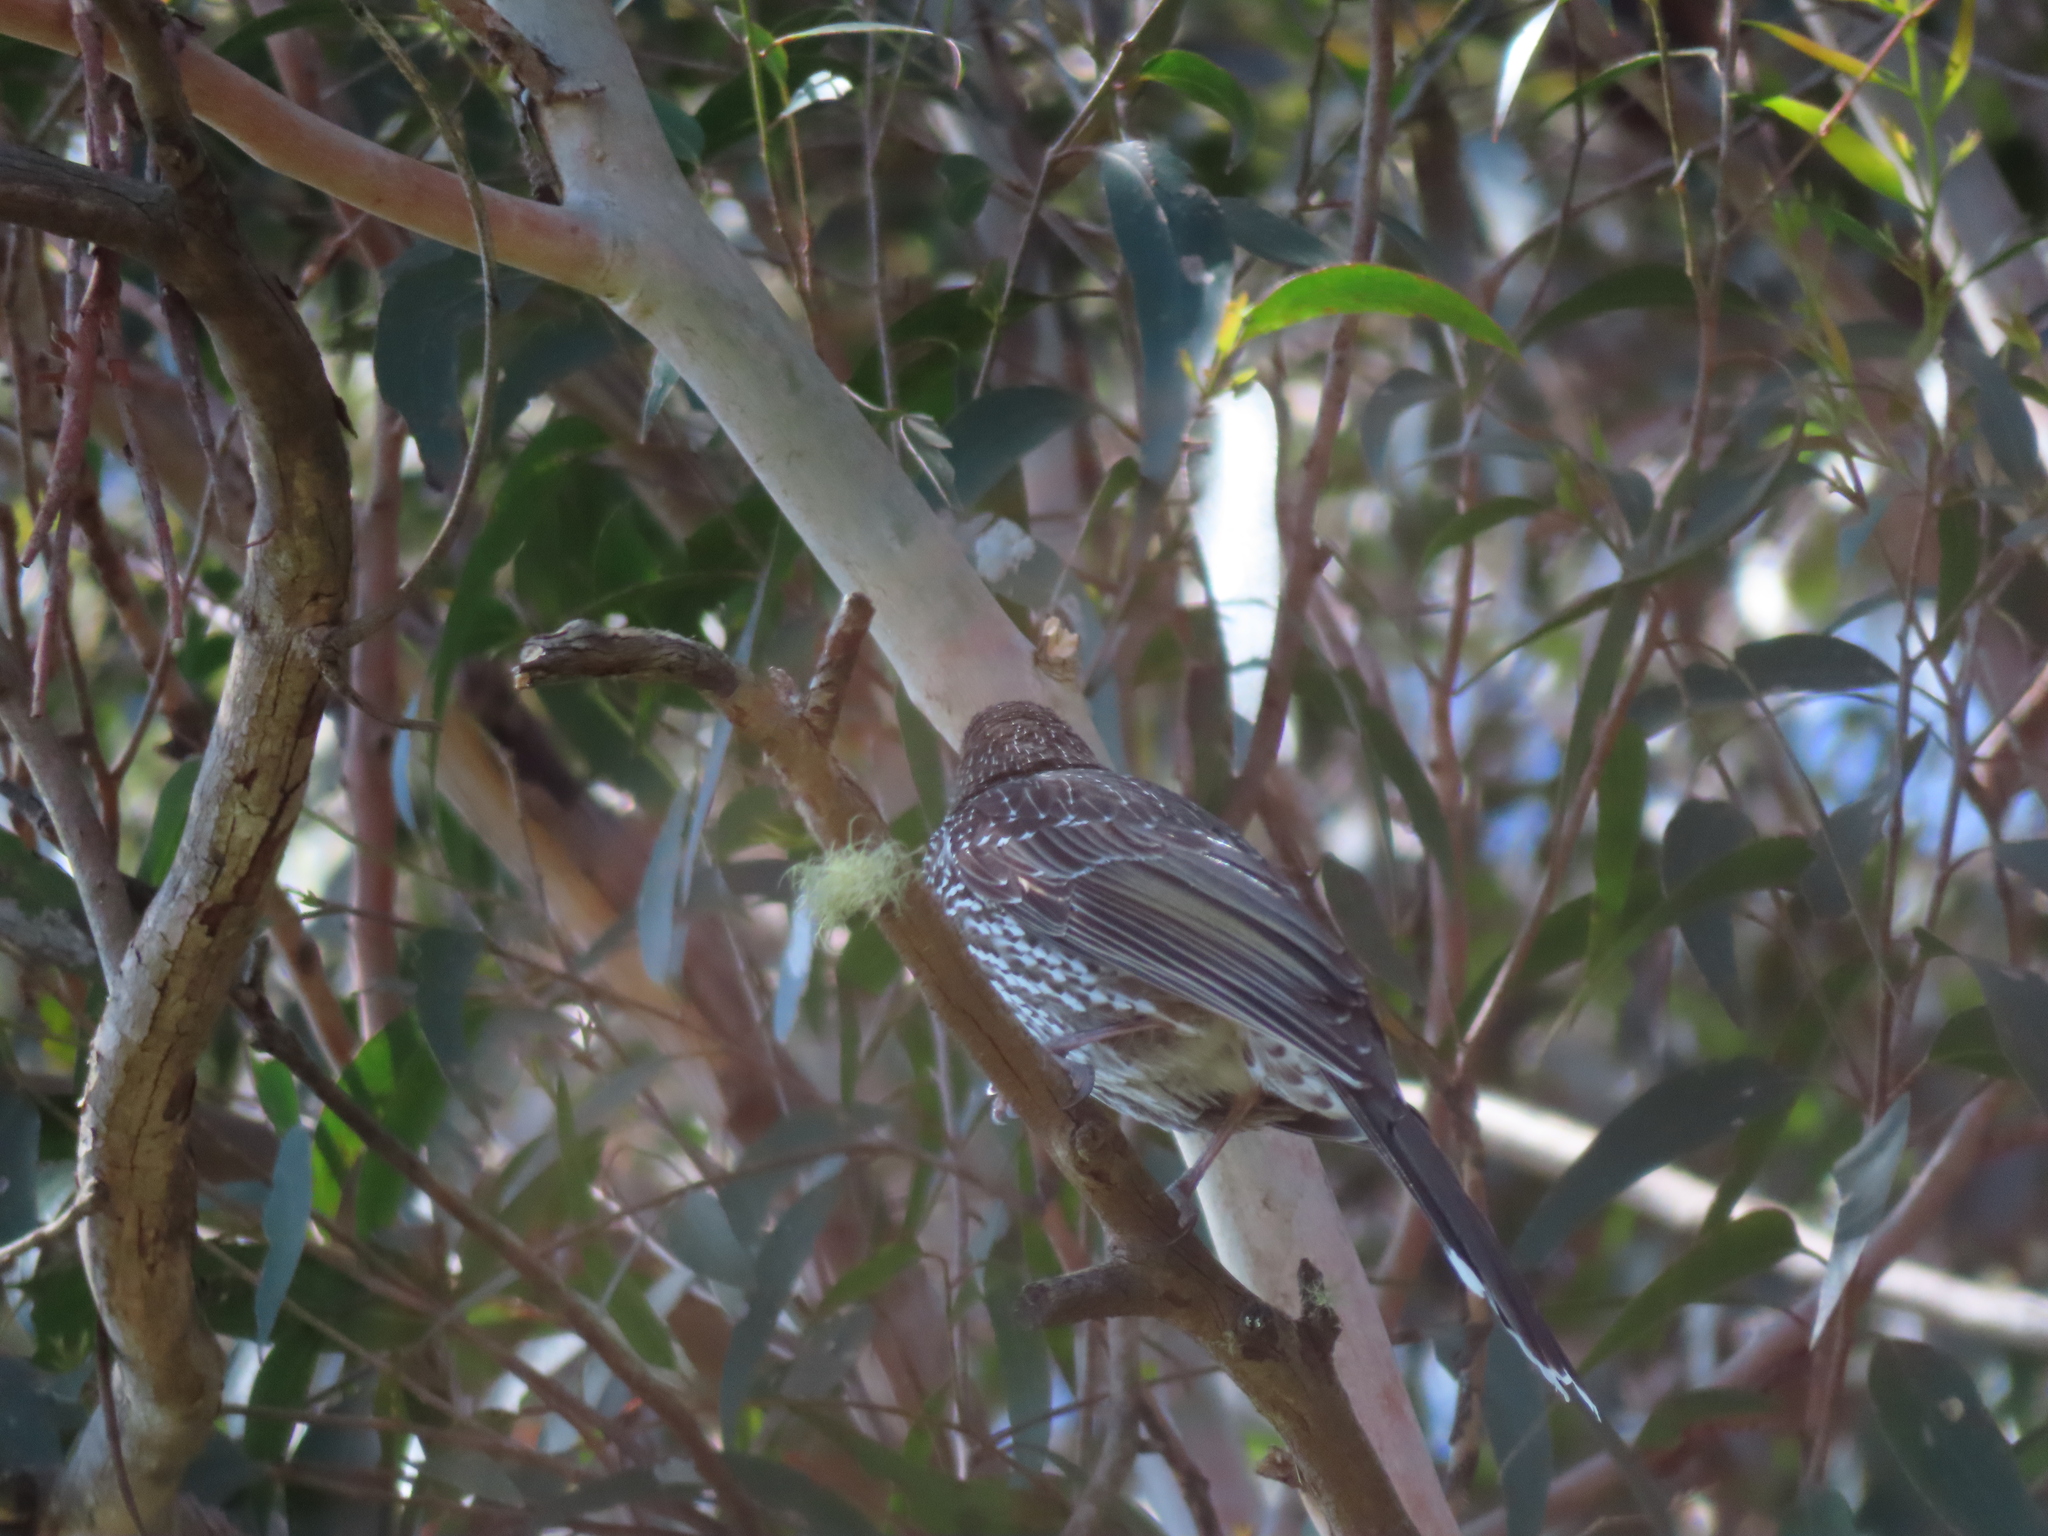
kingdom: Animalia
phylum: Chordata
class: Aves
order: Passeriformes
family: Meliphagidae
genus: Anthochaera
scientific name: Anthochaera chrysoptera
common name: Little wattlebird
